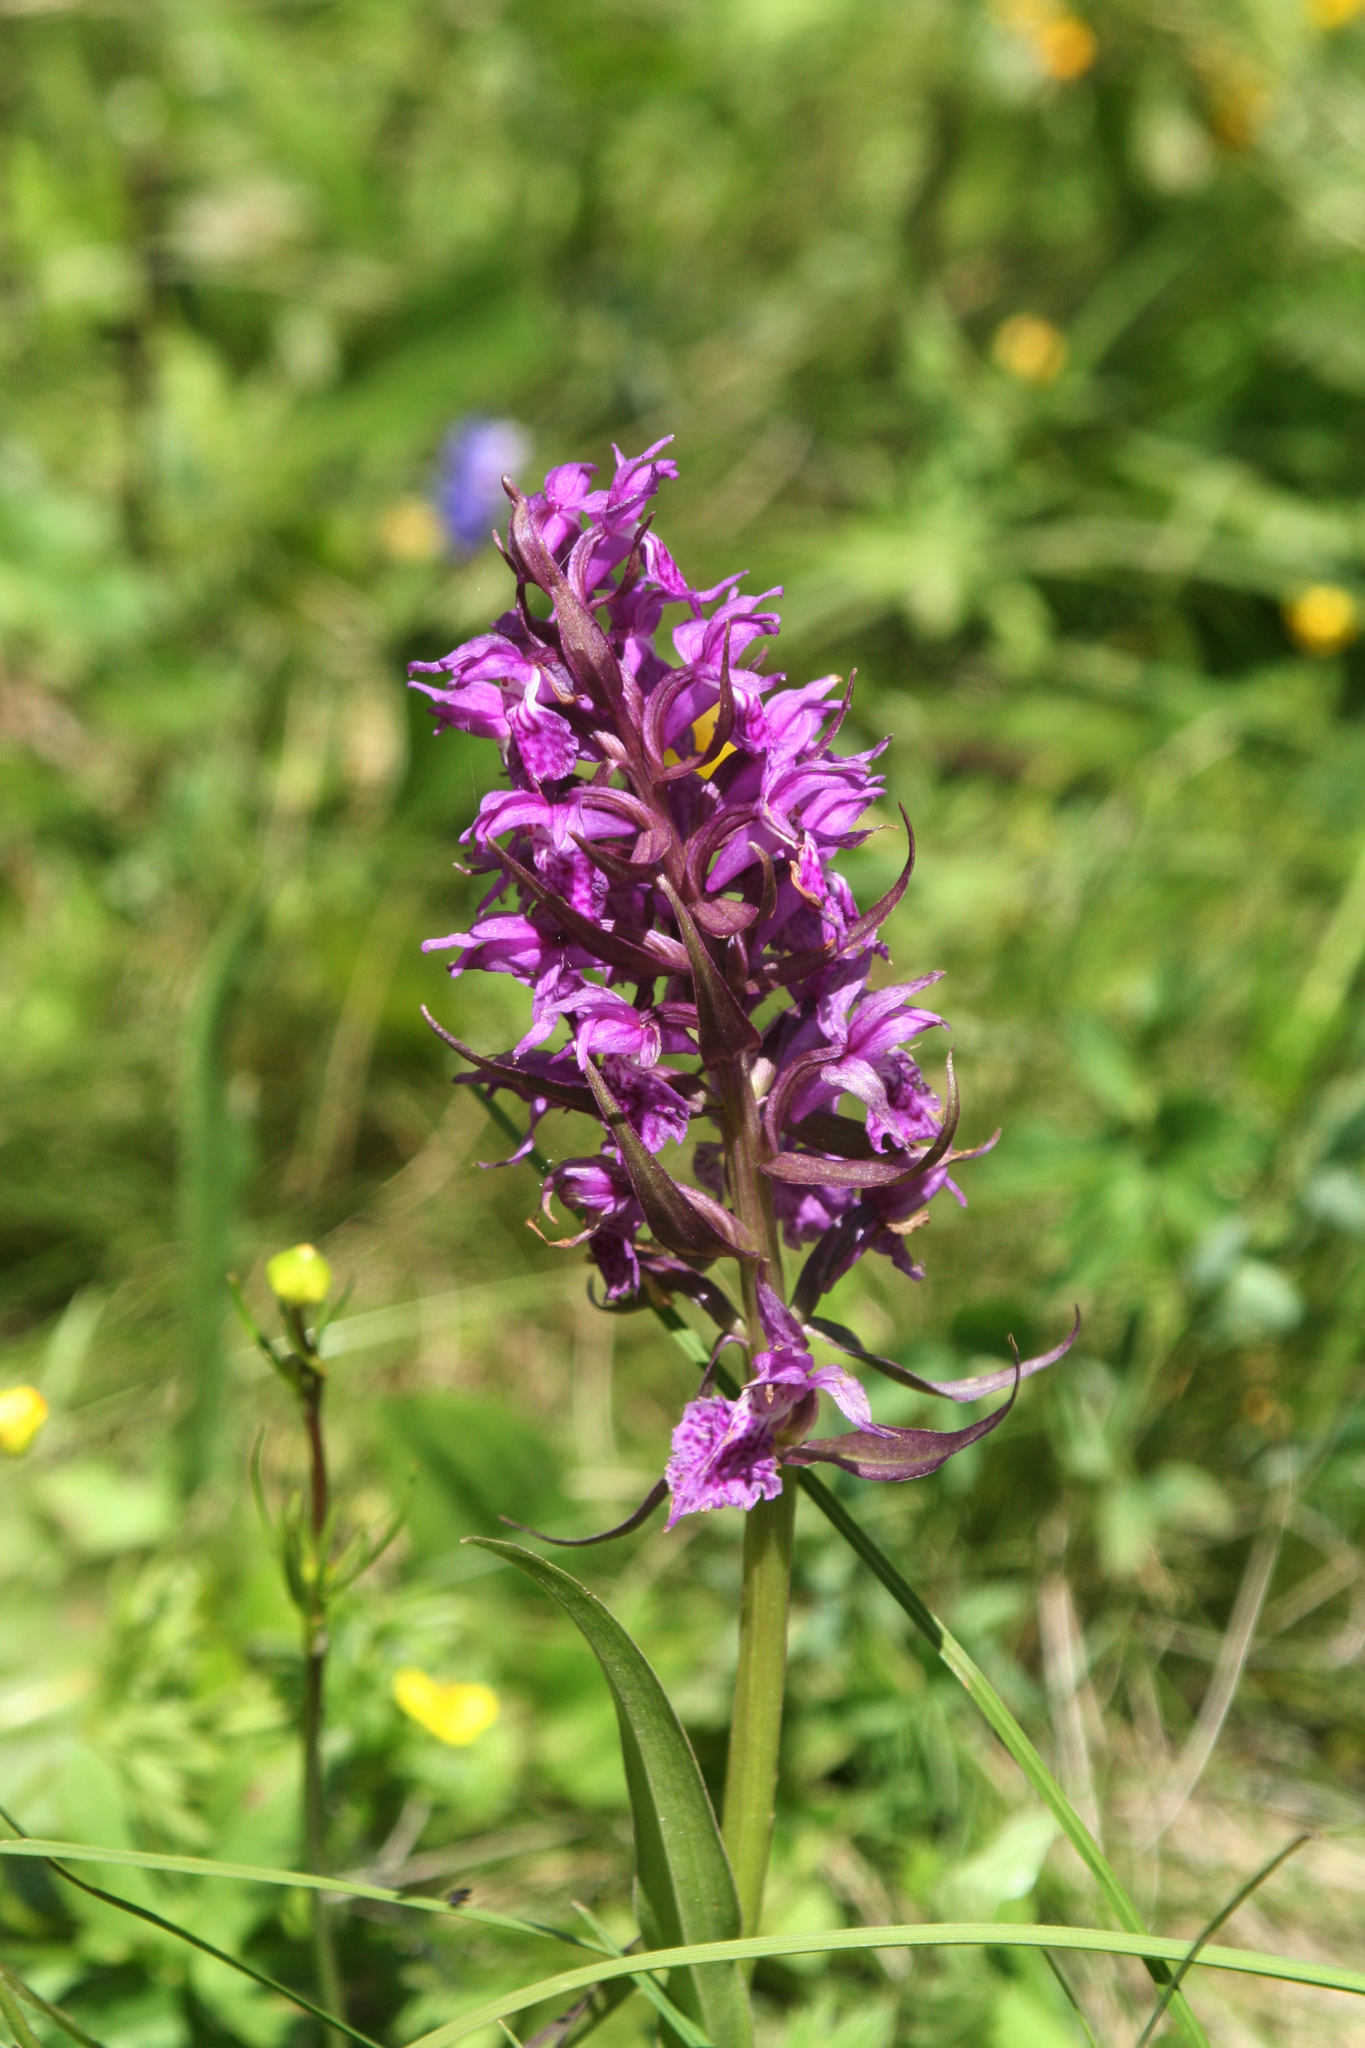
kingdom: Plantae
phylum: Tracheophyta
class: Liliopsida
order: Asparagales
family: Orchidaceae
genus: Dactylorhiza
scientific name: Dactylorhiza euxina
